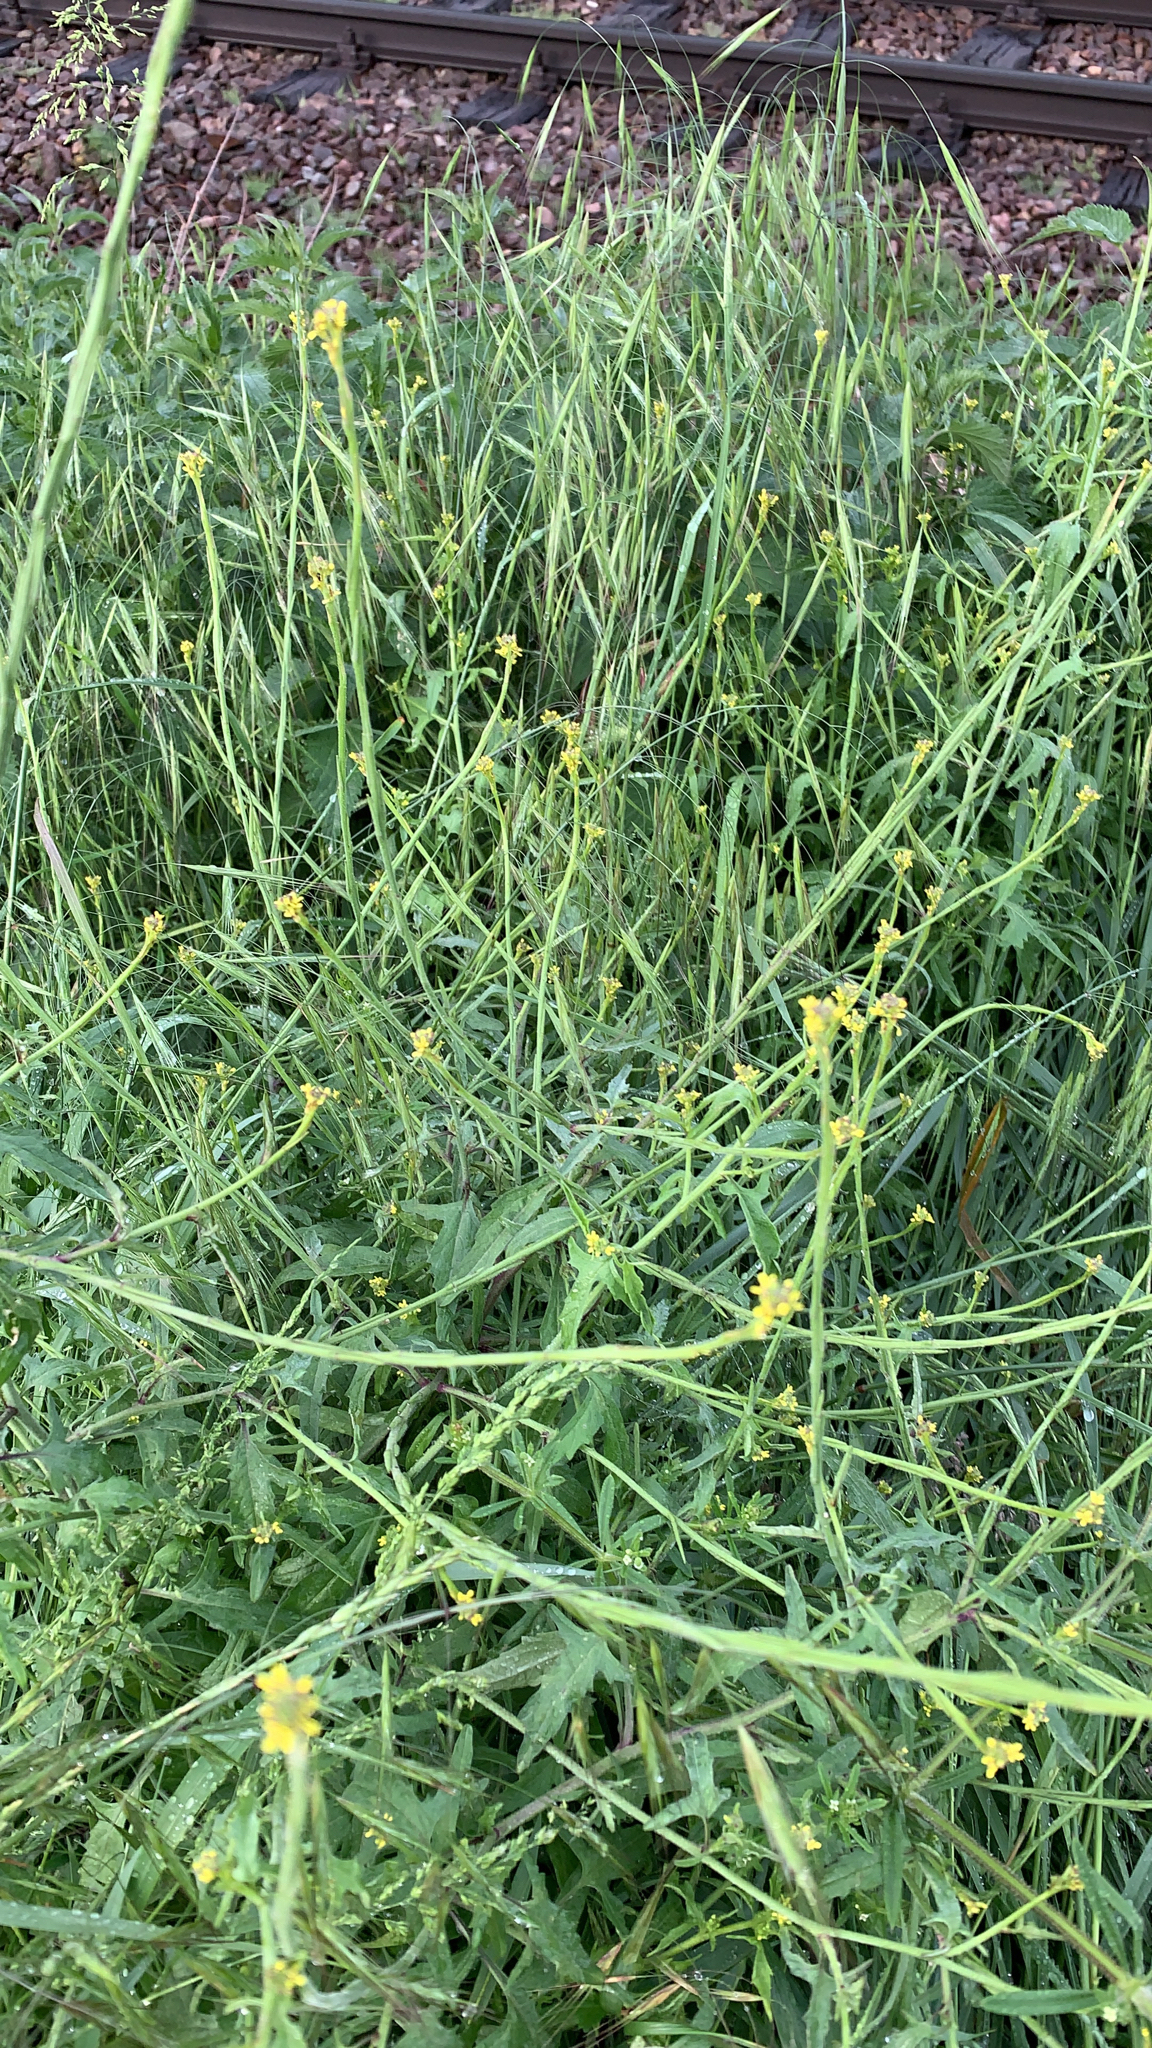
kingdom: Plantae
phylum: Tracheophyta
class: Magnoliopsida
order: Brassicales
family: Brassicaceae
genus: Sisymbrium
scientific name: Sisymbrium officinale
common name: Hedge mustard
